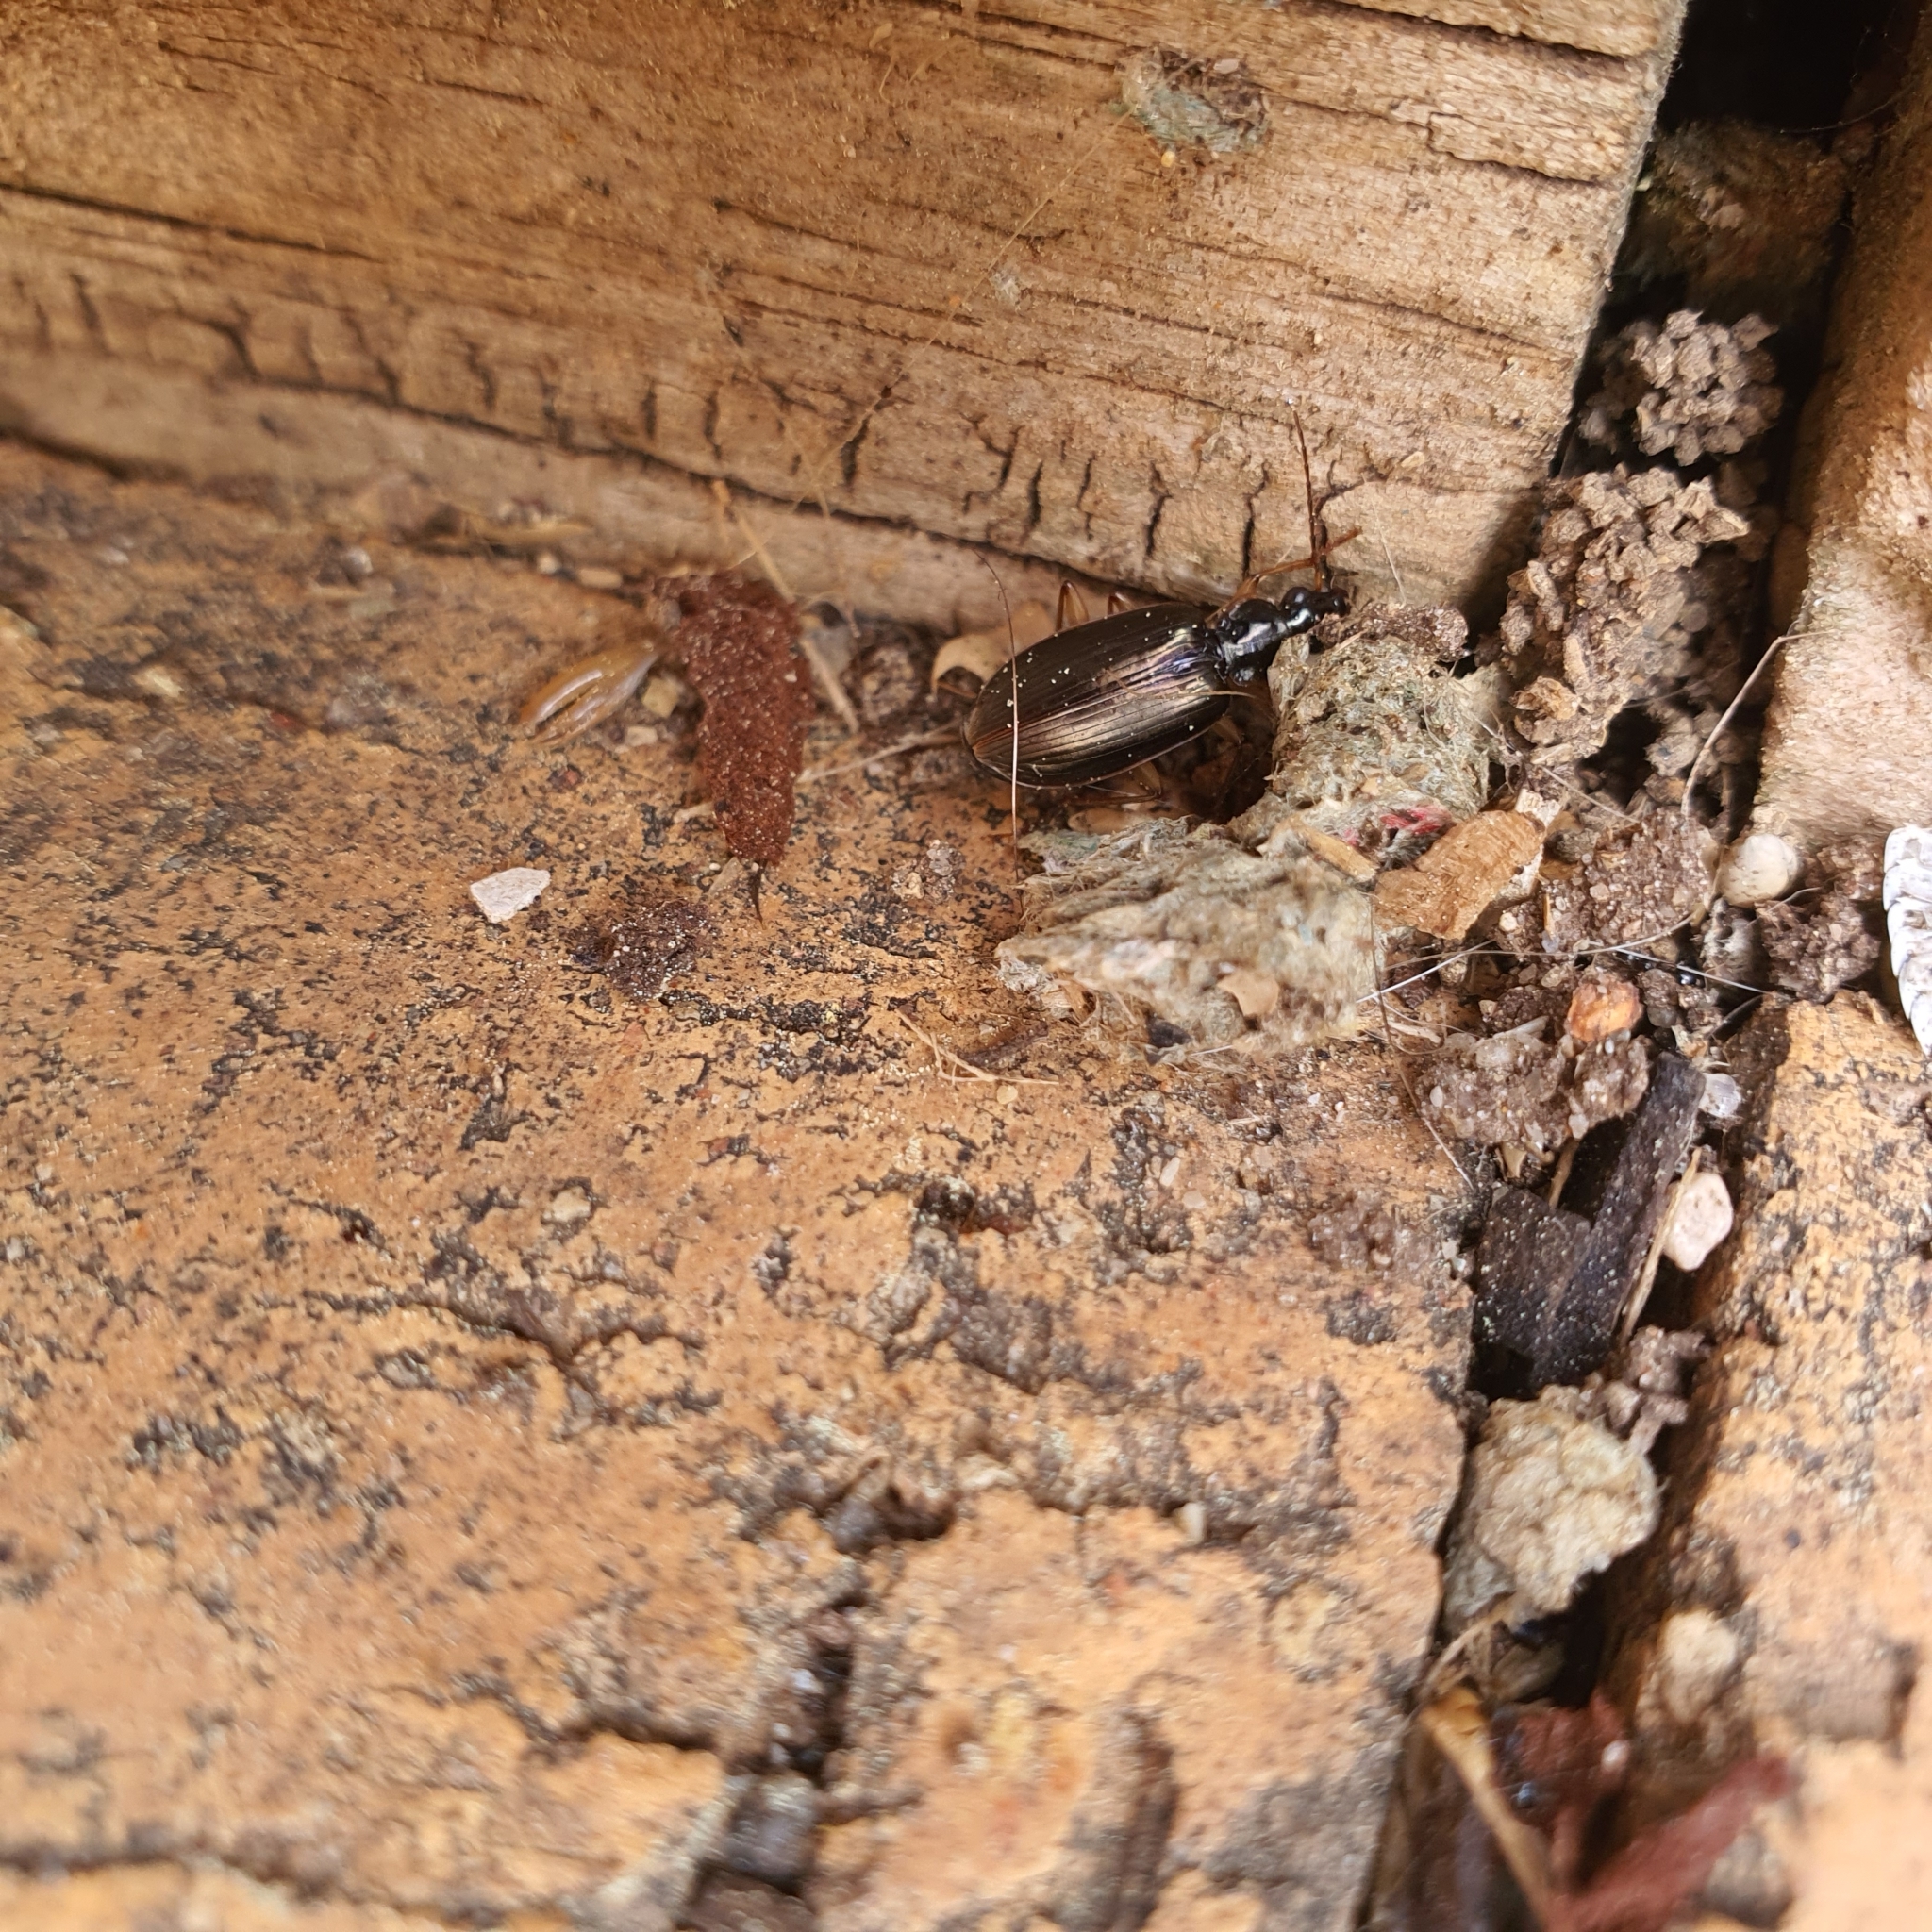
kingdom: Animalia
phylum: Arthropoda
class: Insecta
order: Coleoptera
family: Carabidae
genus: Notagonum
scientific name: Notagonum submetallicum
